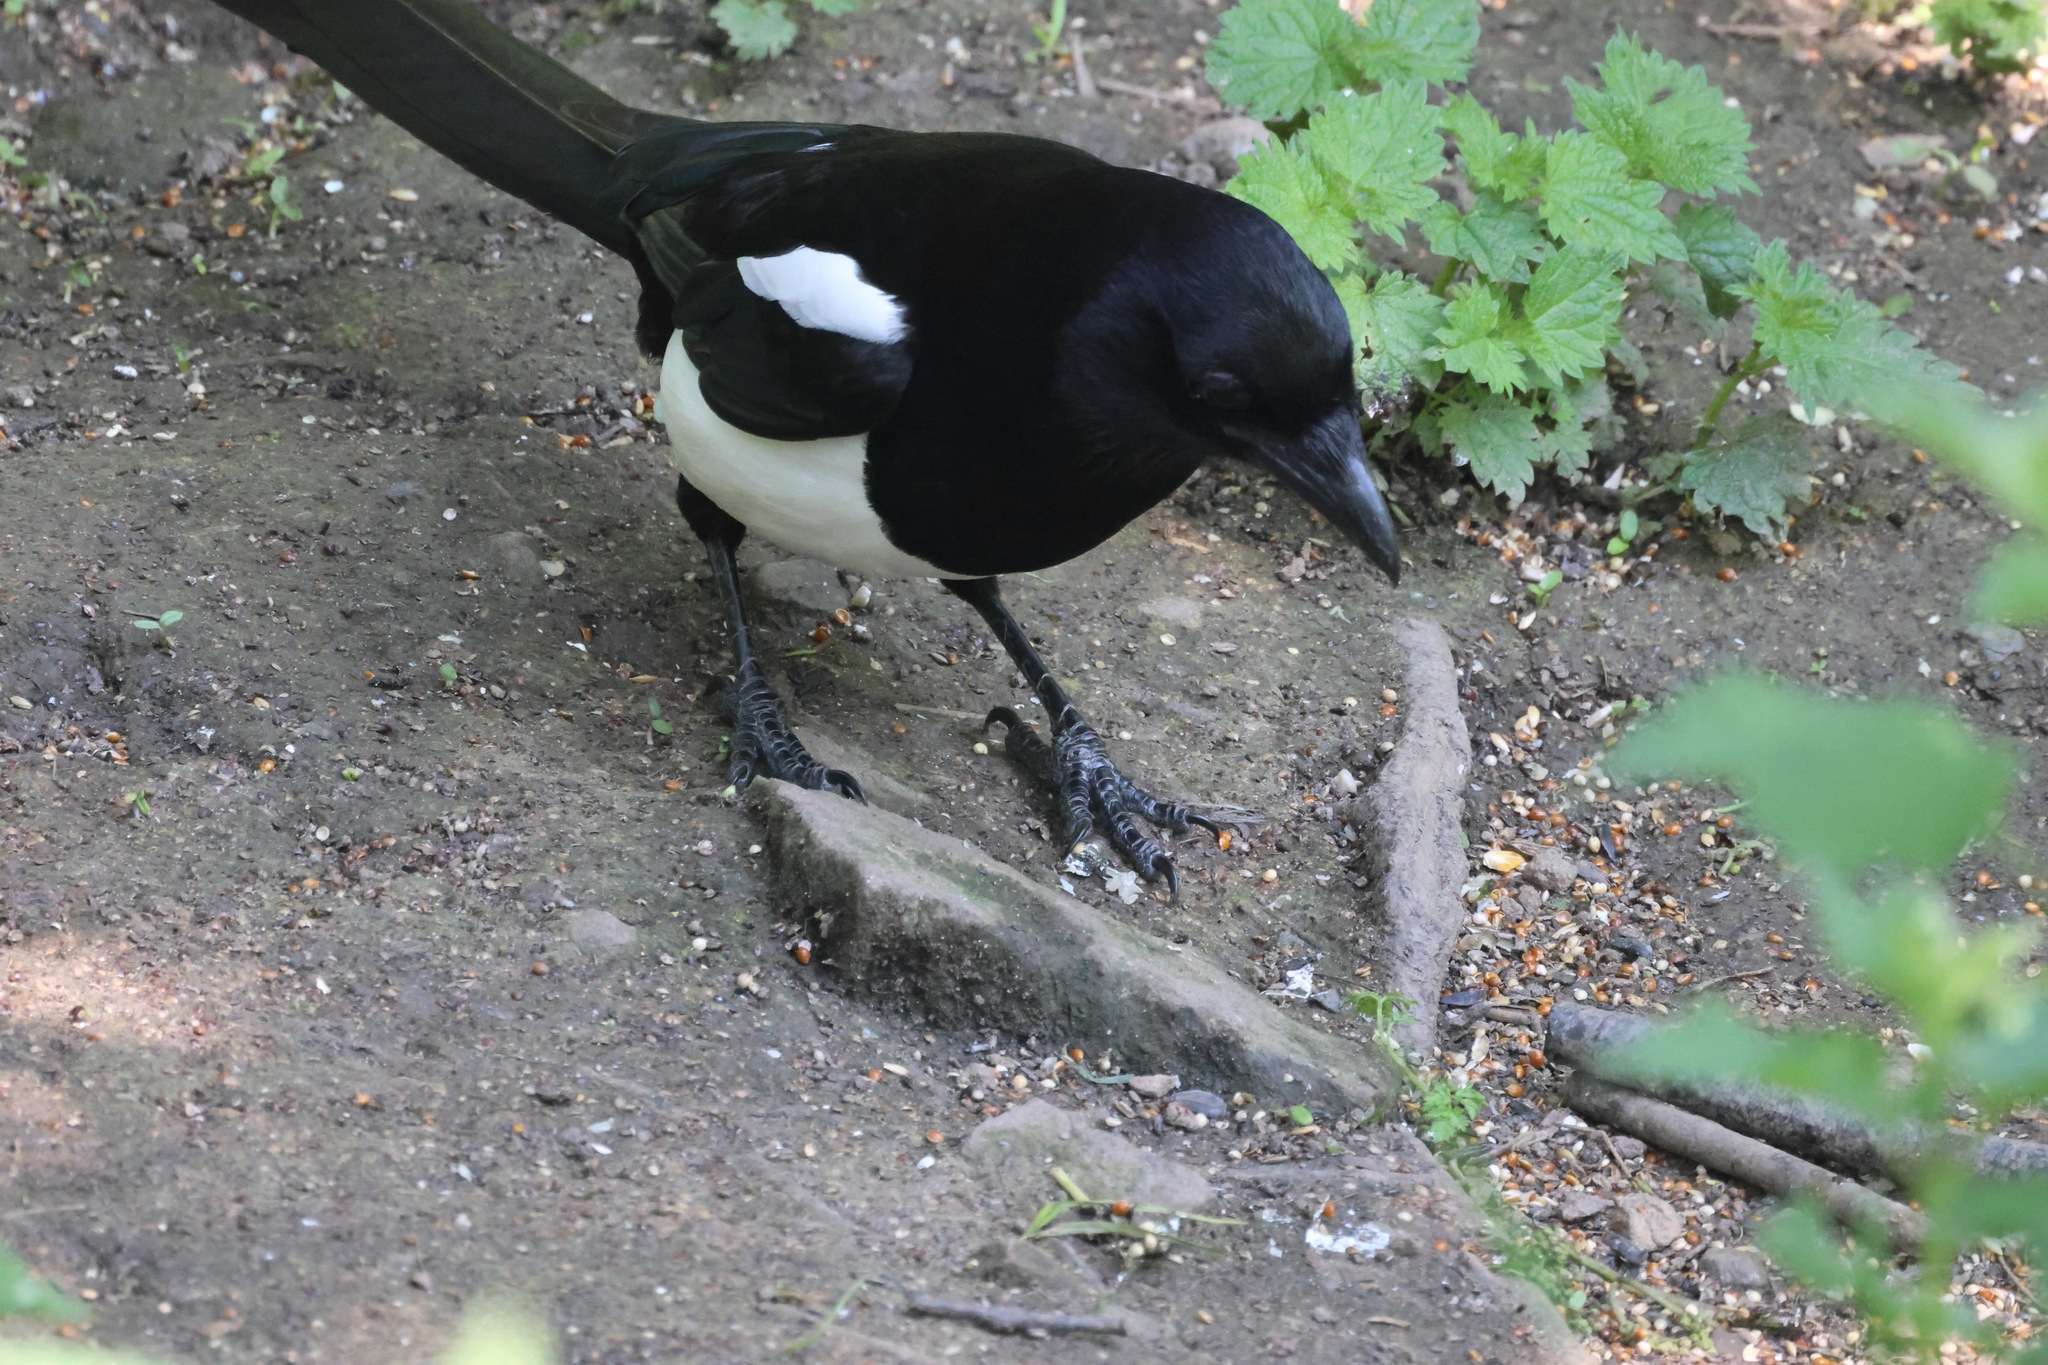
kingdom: Animalia
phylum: Chordata
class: Aves
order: Passeriformes
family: Corvidae
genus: Pica
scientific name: Pica pica
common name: Eurasian magpie
